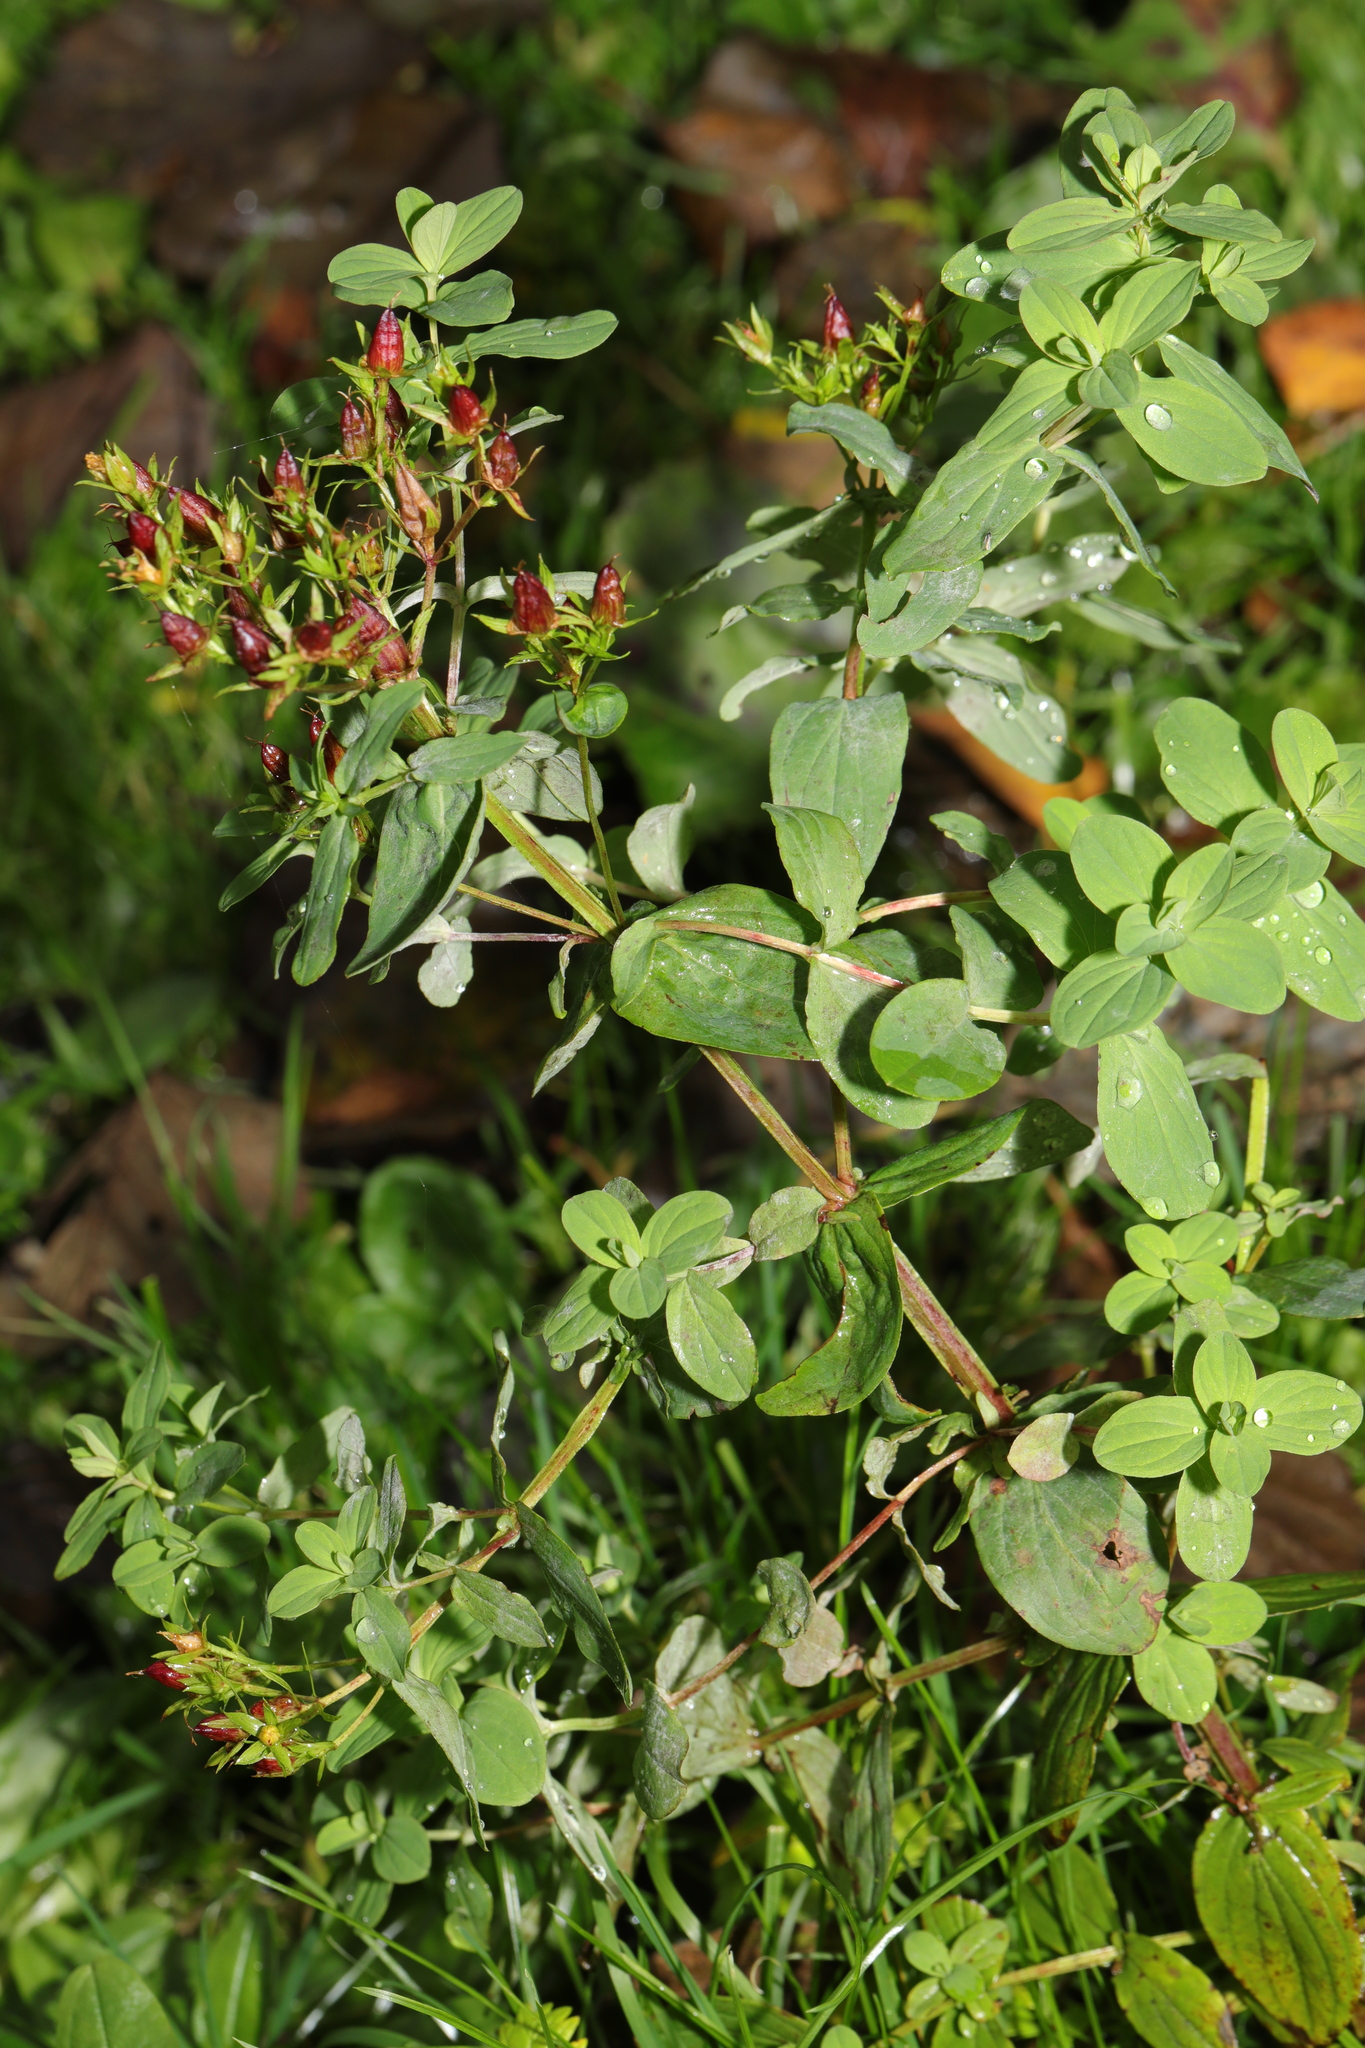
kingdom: Plantae
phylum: Tracheophyta
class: Magnoliopsida
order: Malpighiales
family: Hypericaceae
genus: Hypericum
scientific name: Hypericum tetrapterum
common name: Square-stalked st. john's-wort
